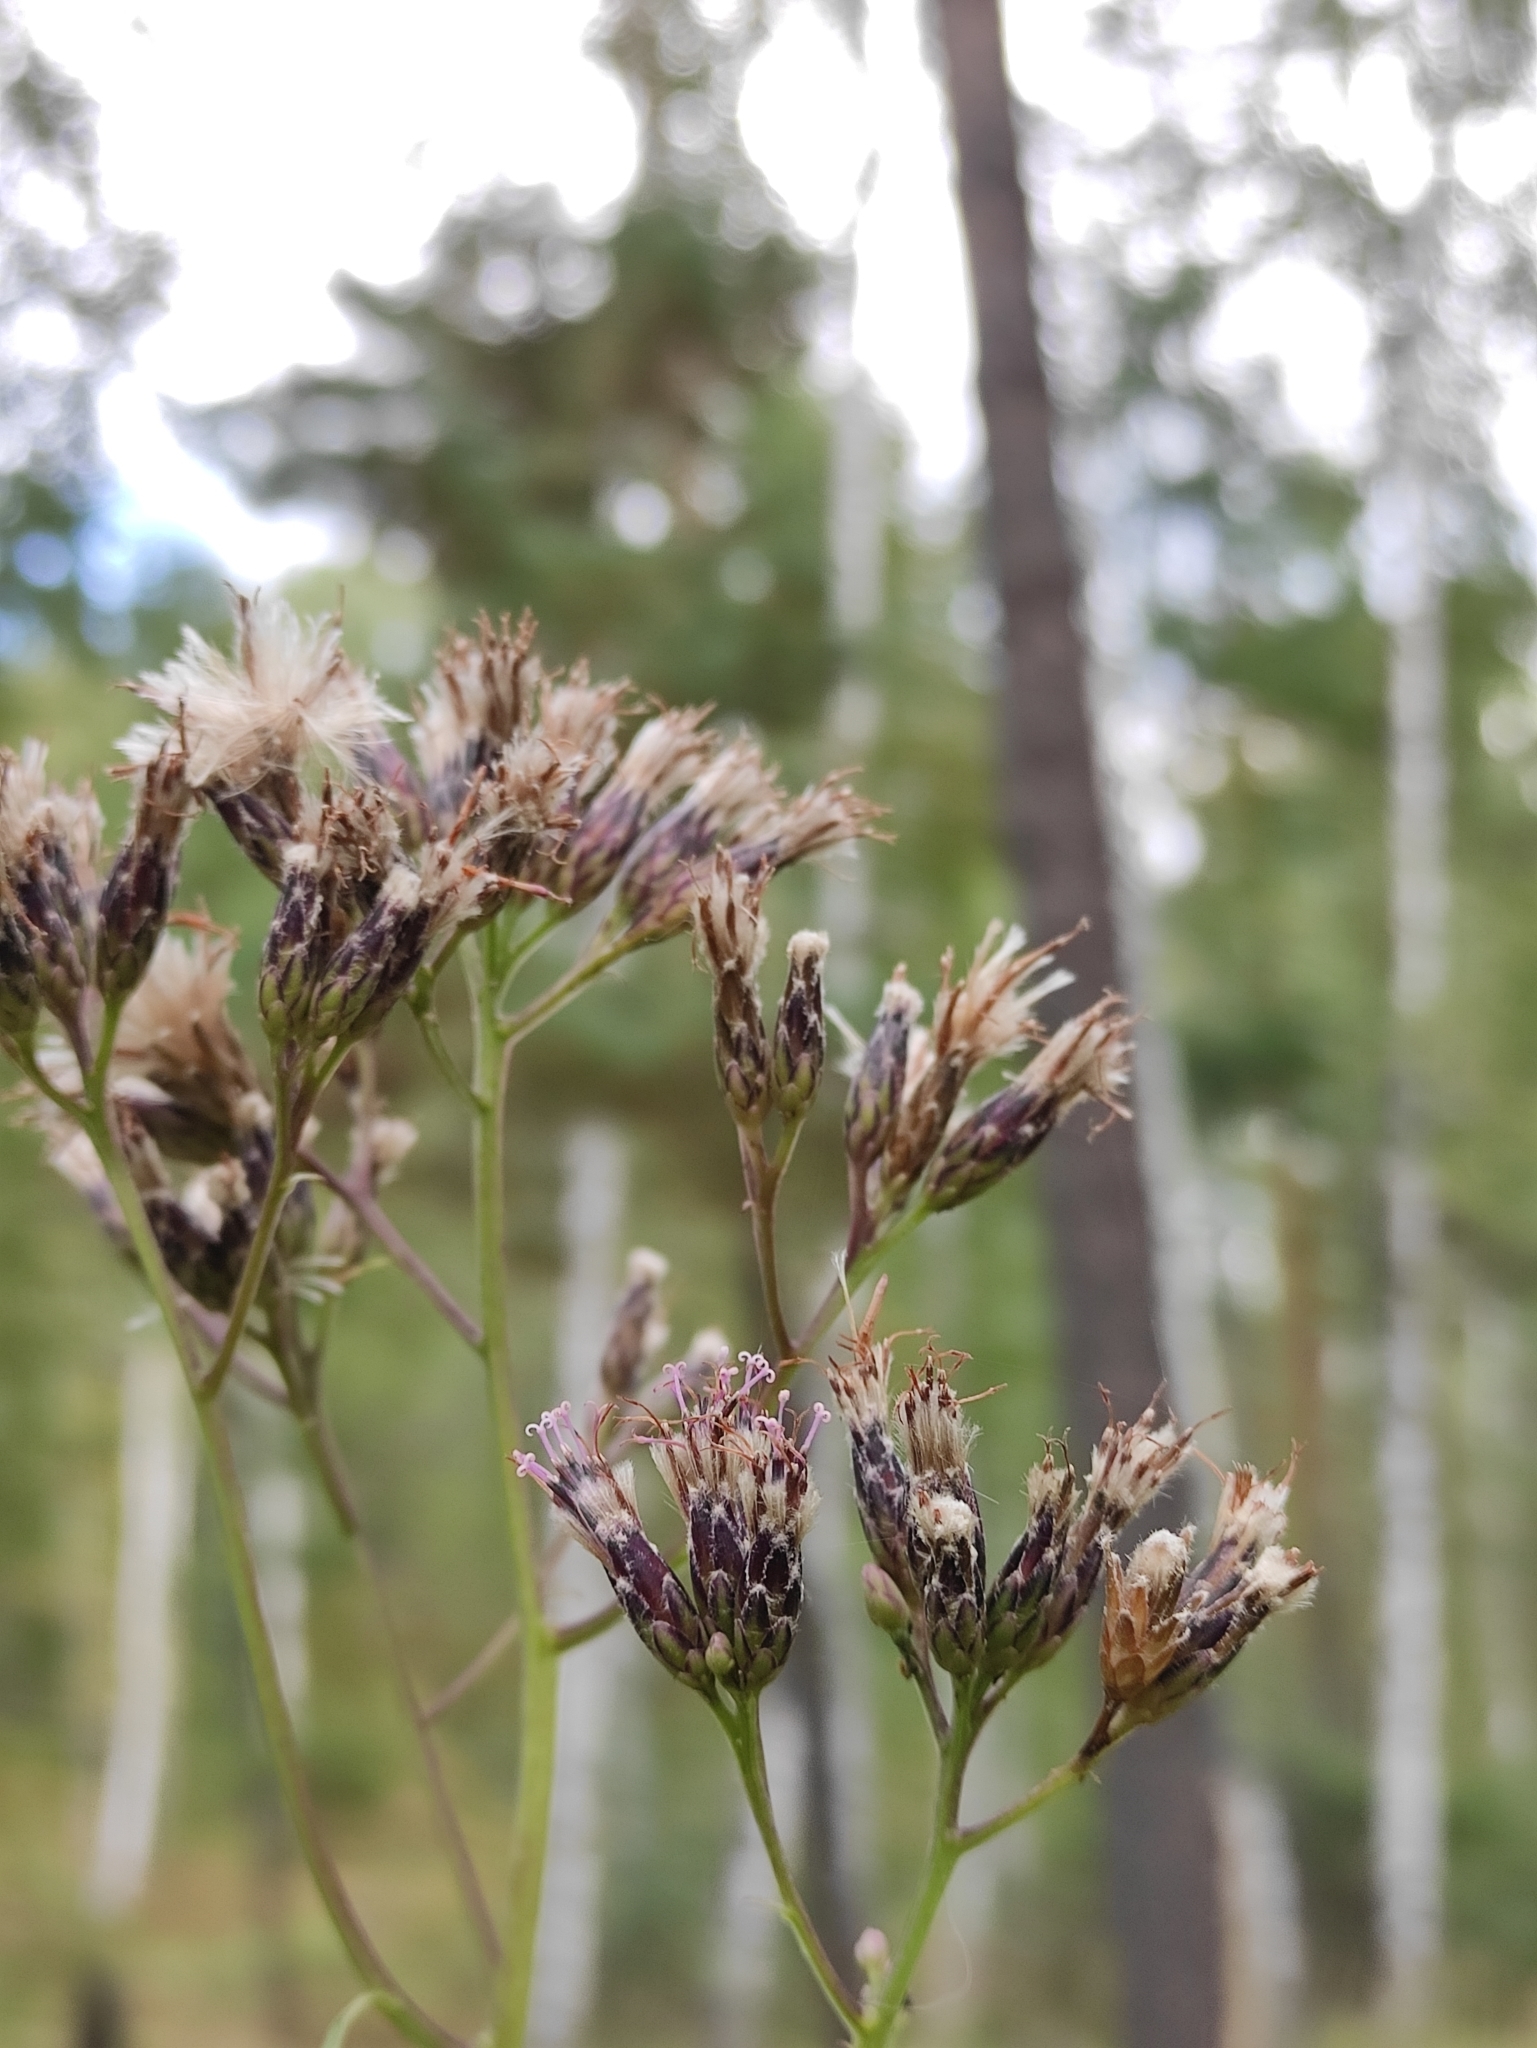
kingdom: Plantae
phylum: Tracheophyta
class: Magnoliopsida
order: Asterales
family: Asteraceae
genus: Saussurea
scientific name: Saussurea parviflora
